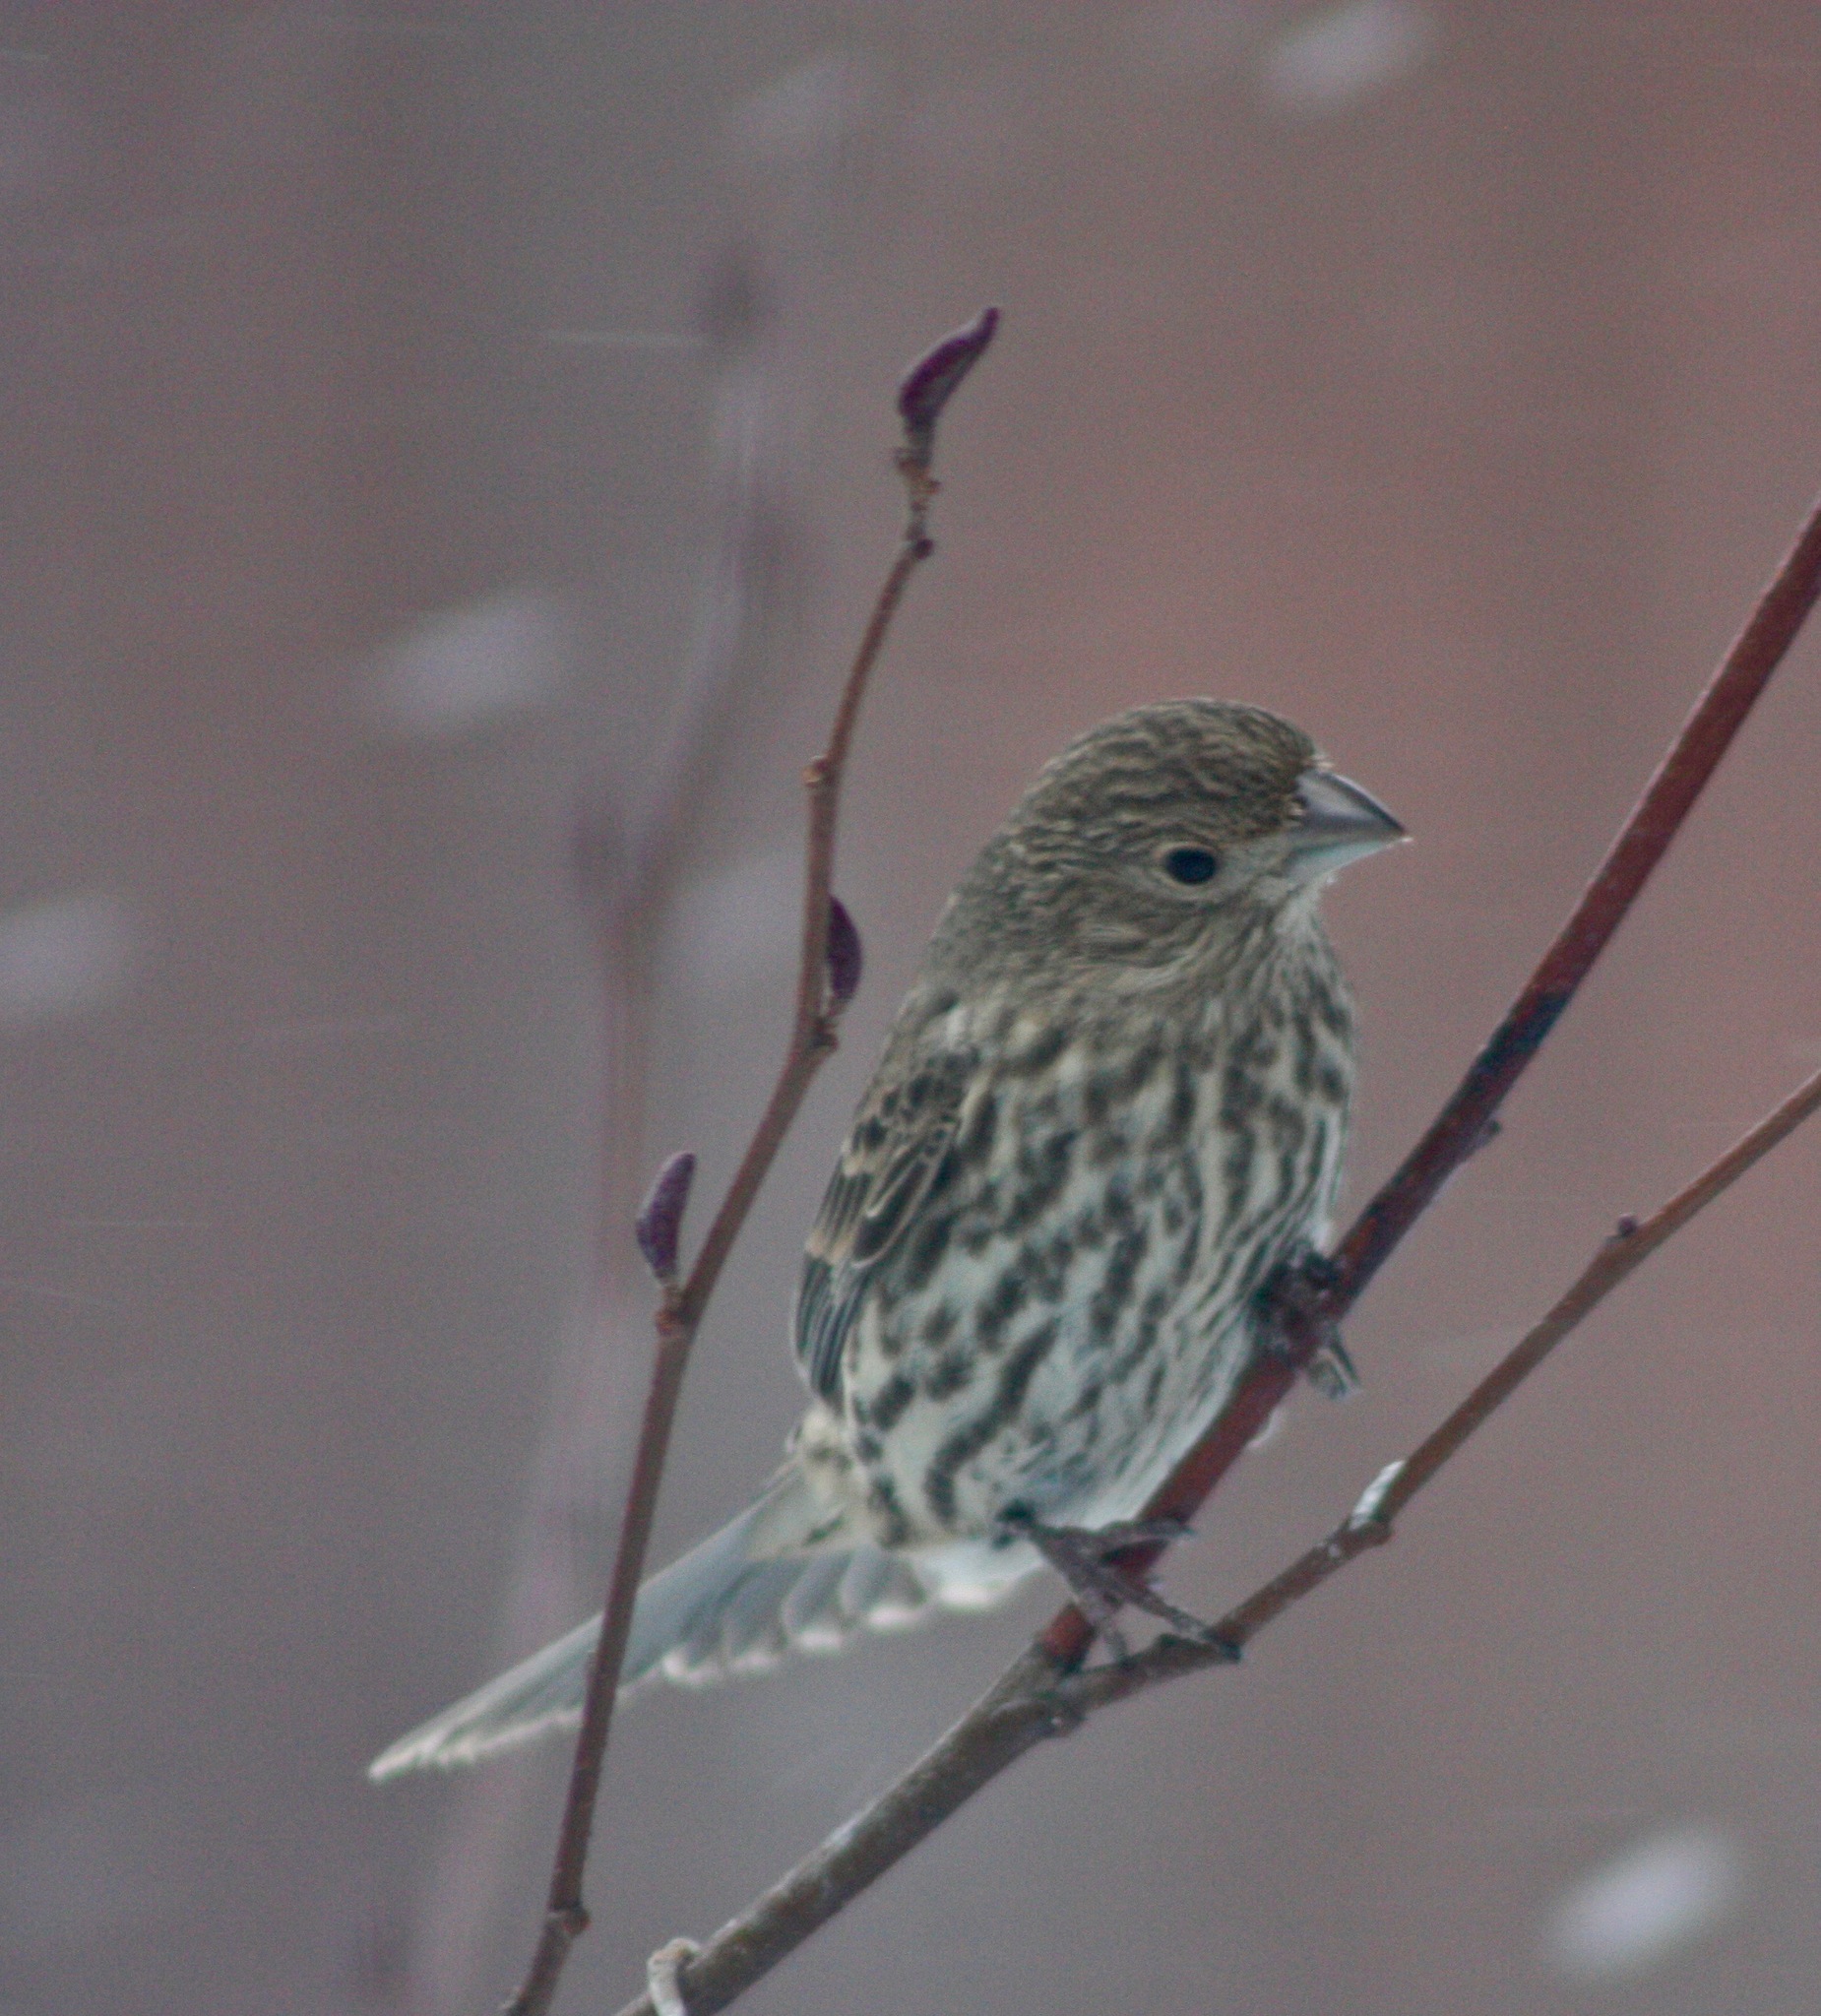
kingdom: Animalia
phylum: Chordata
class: Aves
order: Passeriformes
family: Fringillidae
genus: Haemorhous
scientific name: Haemorhous mexicanus
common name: House finch
